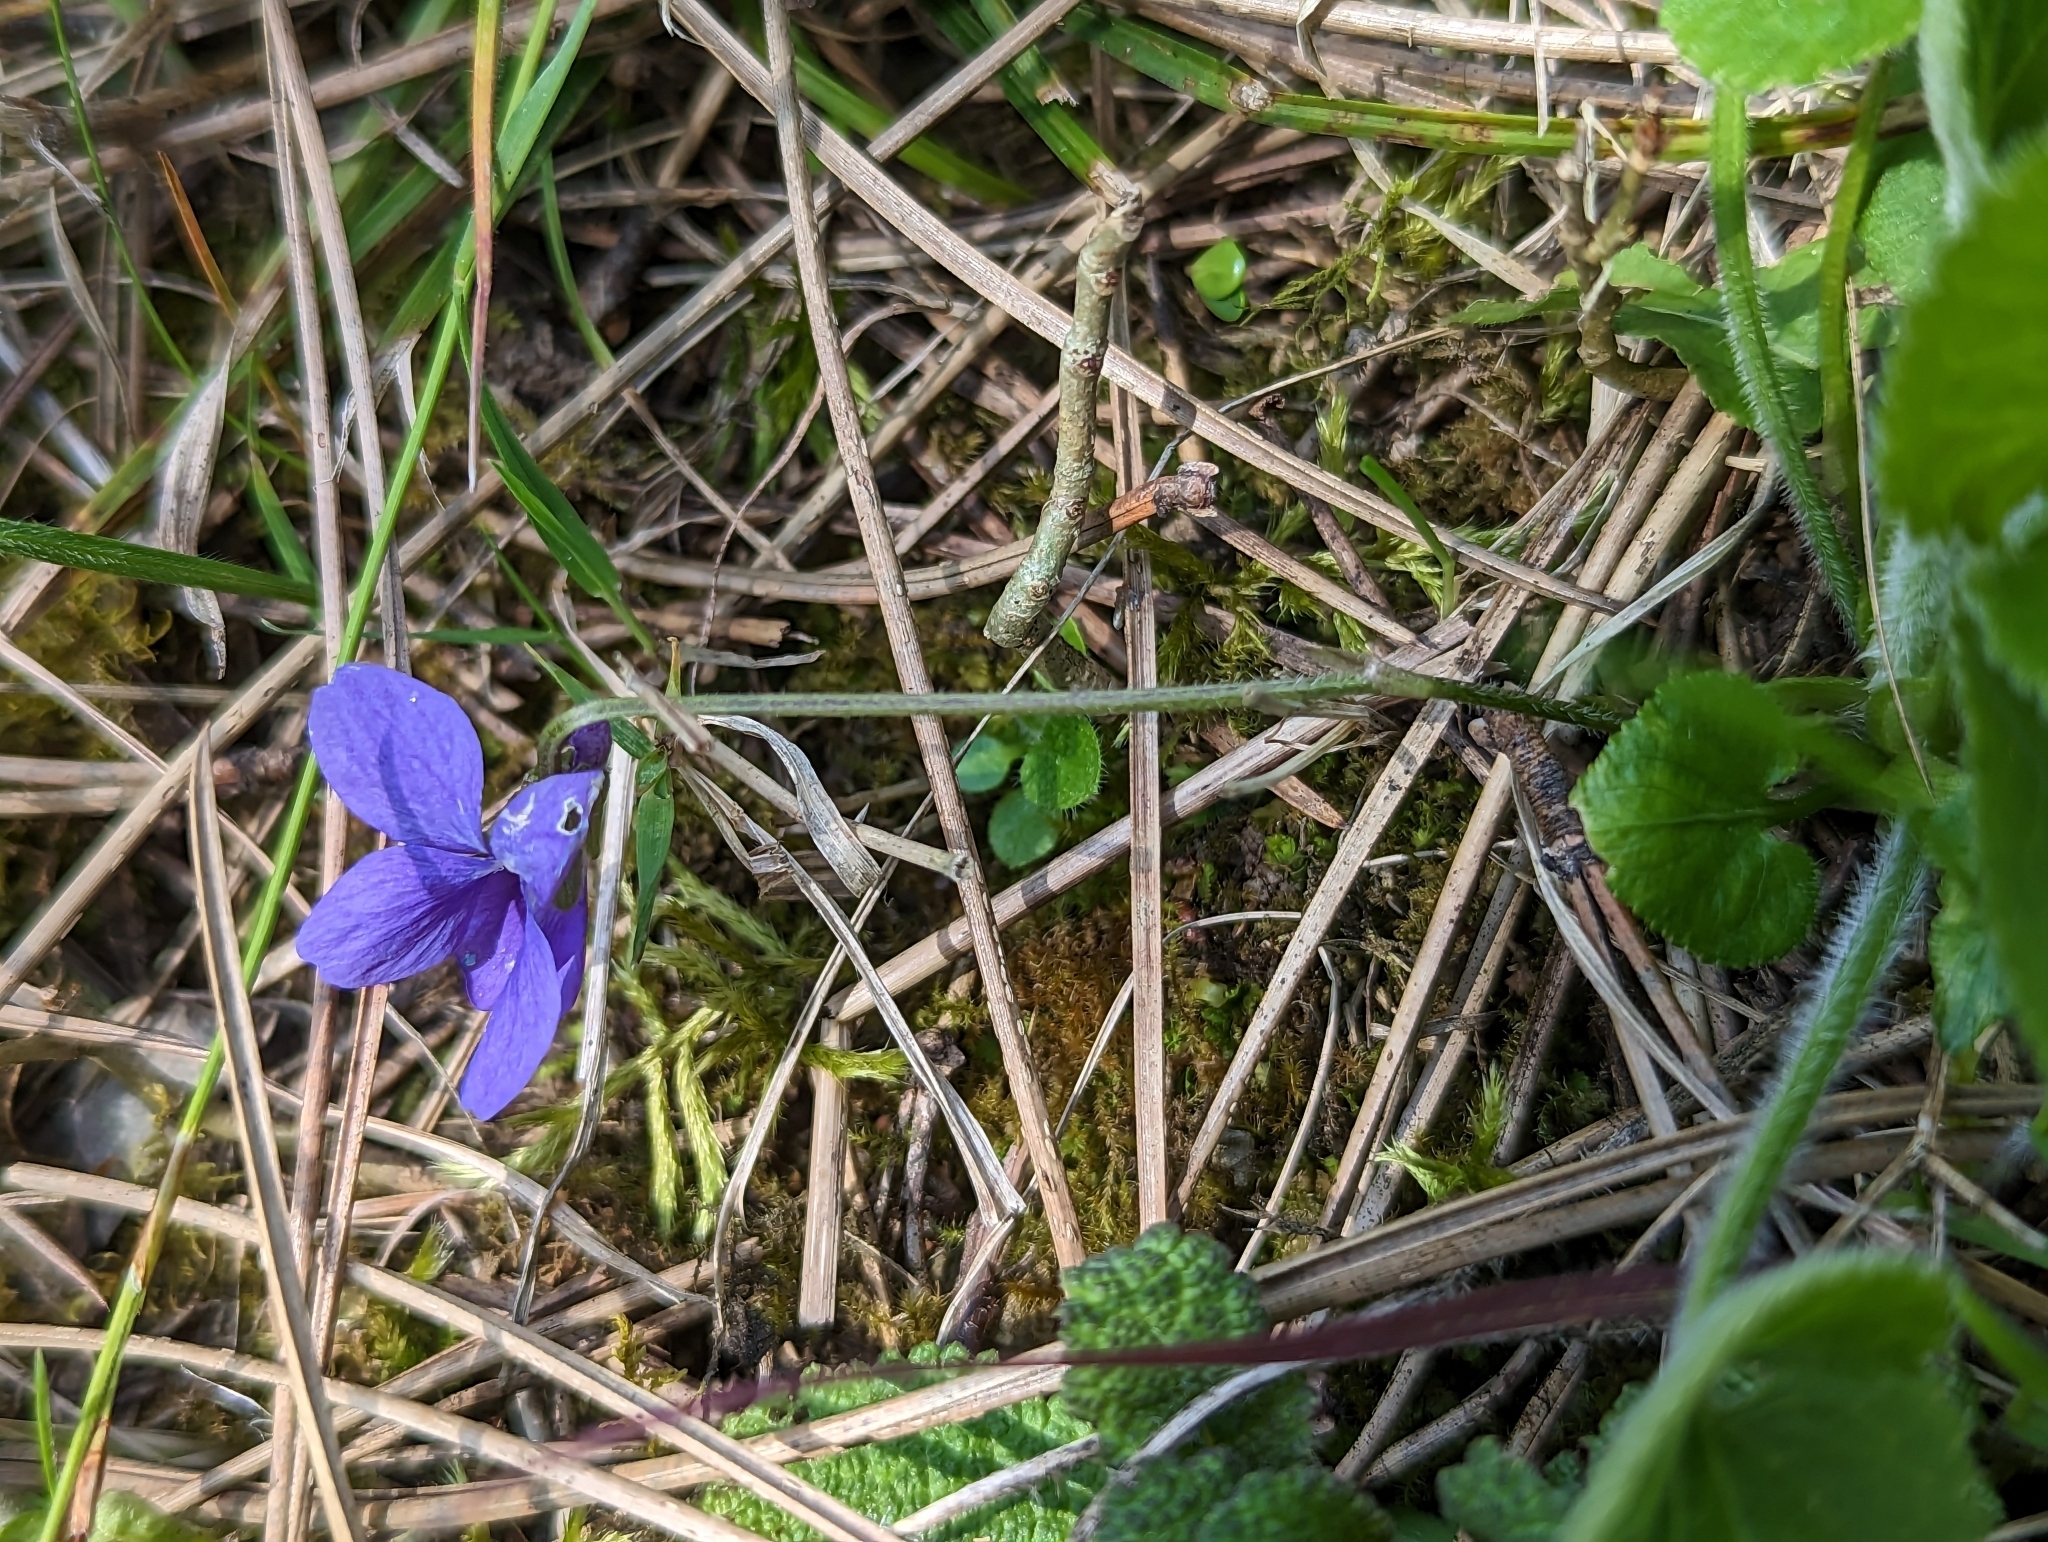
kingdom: Plantae
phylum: Tracheophyta
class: Magnoliopsida
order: Malpighiales
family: Violaceae
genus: Viola
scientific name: Viola hirta
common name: Hairy violet
